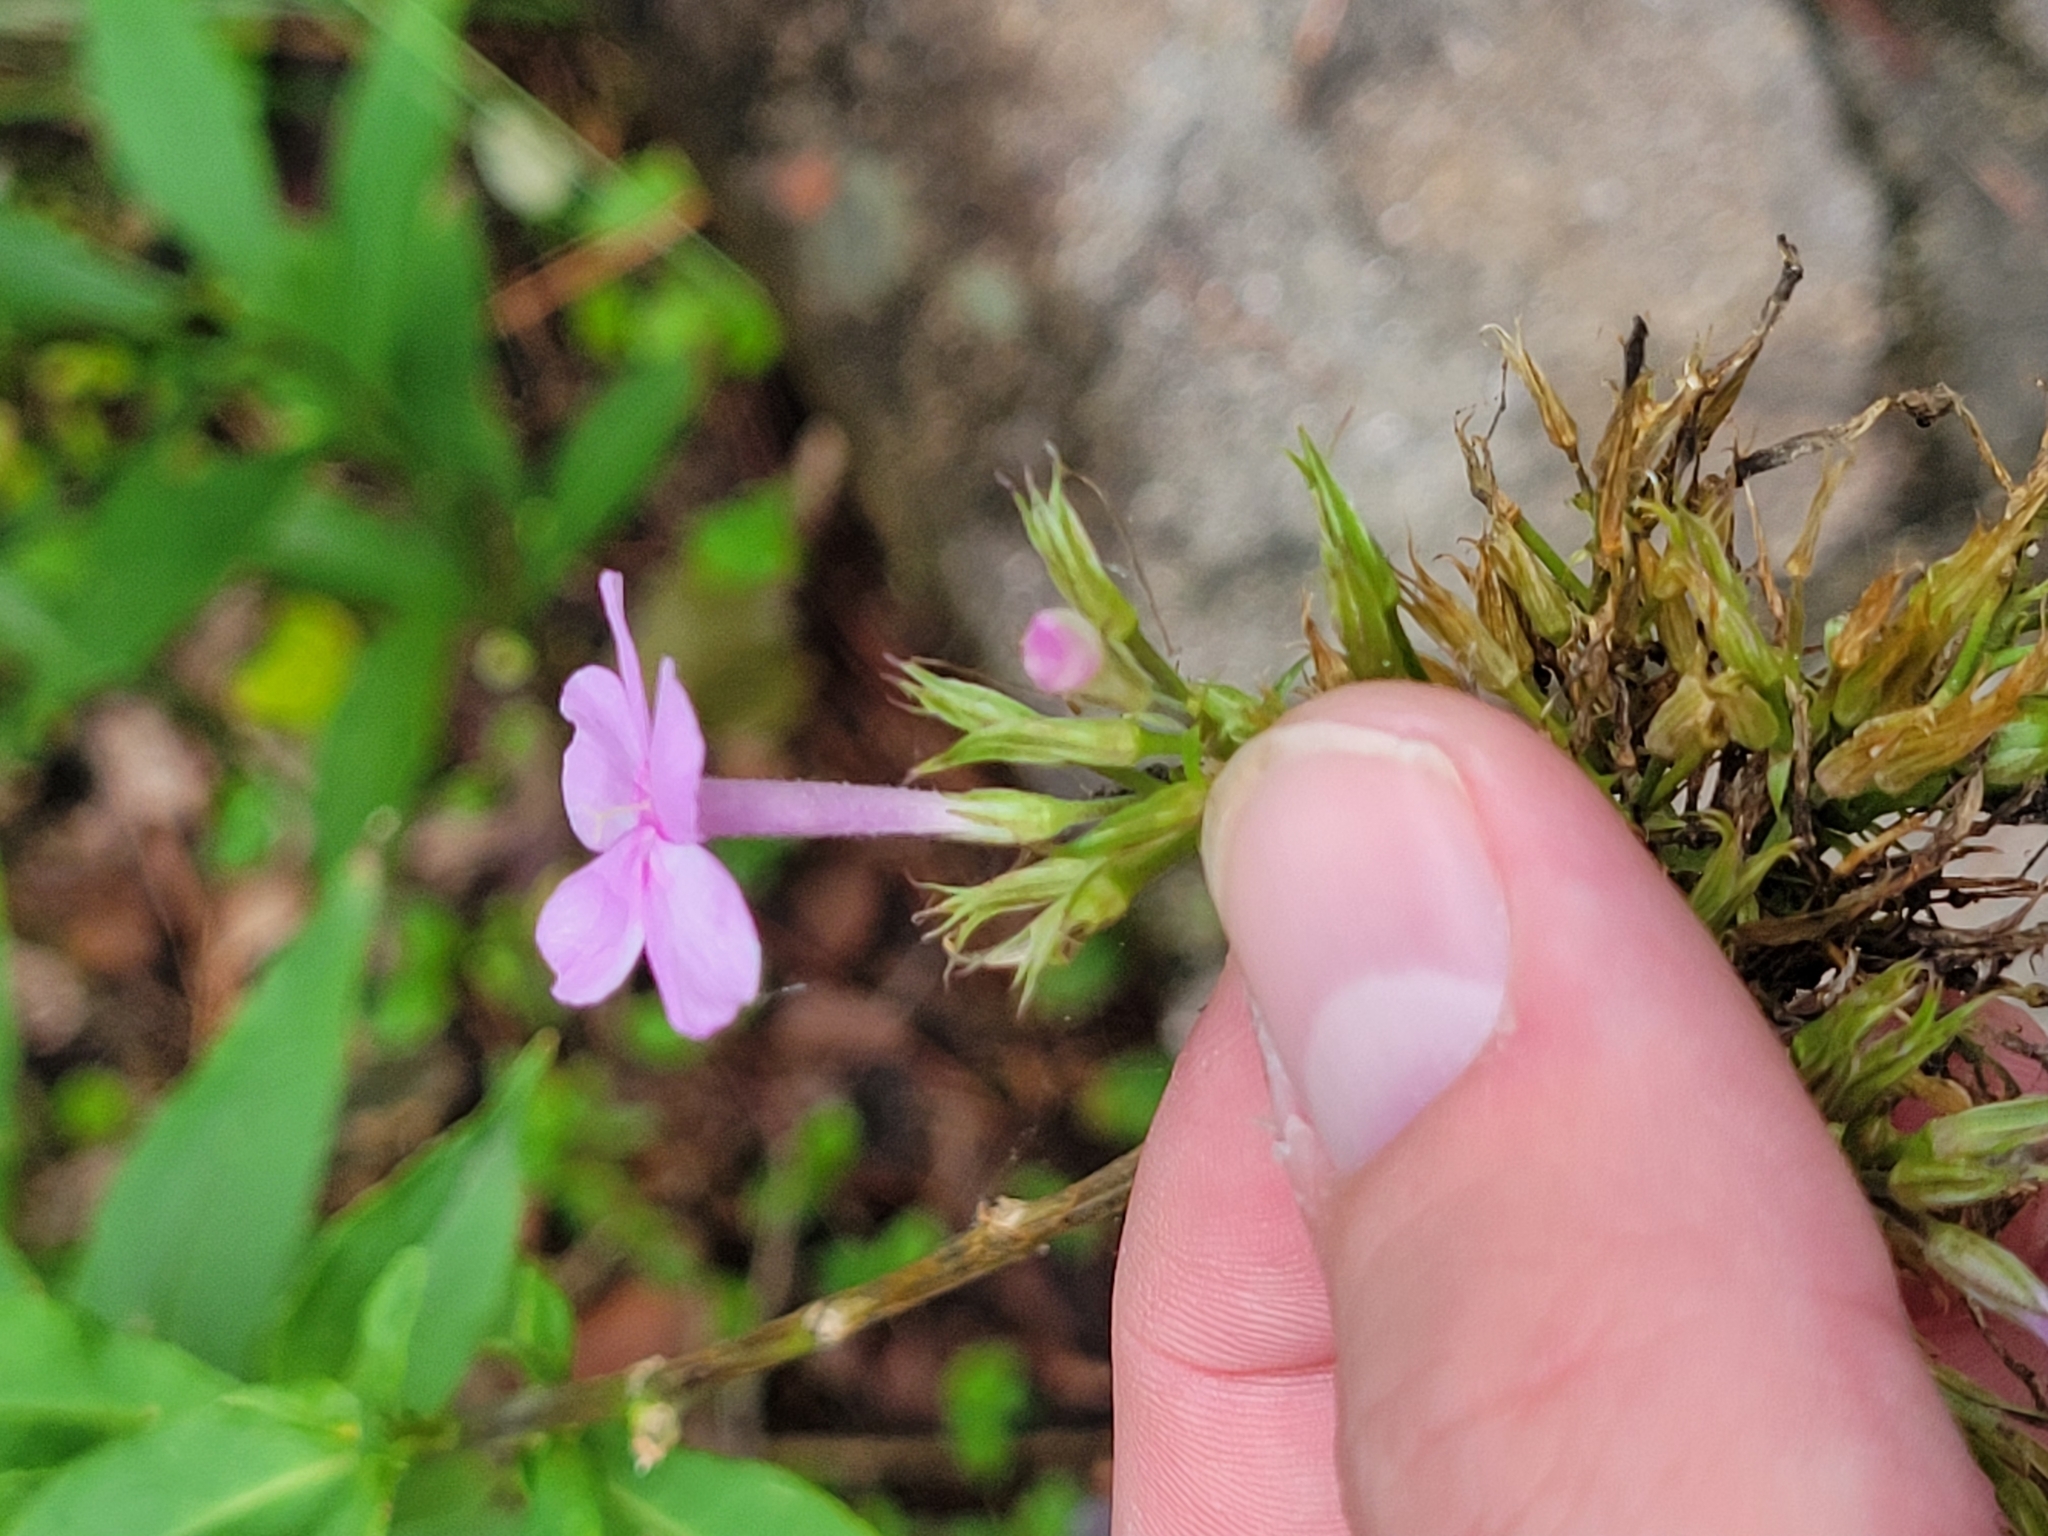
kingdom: Plantae
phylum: Tracheophyta
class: Magnoliopsida
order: Ericales
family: Polemoniaceae
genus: Phlox
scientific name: Phlox paniculata
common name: Fall phlox
